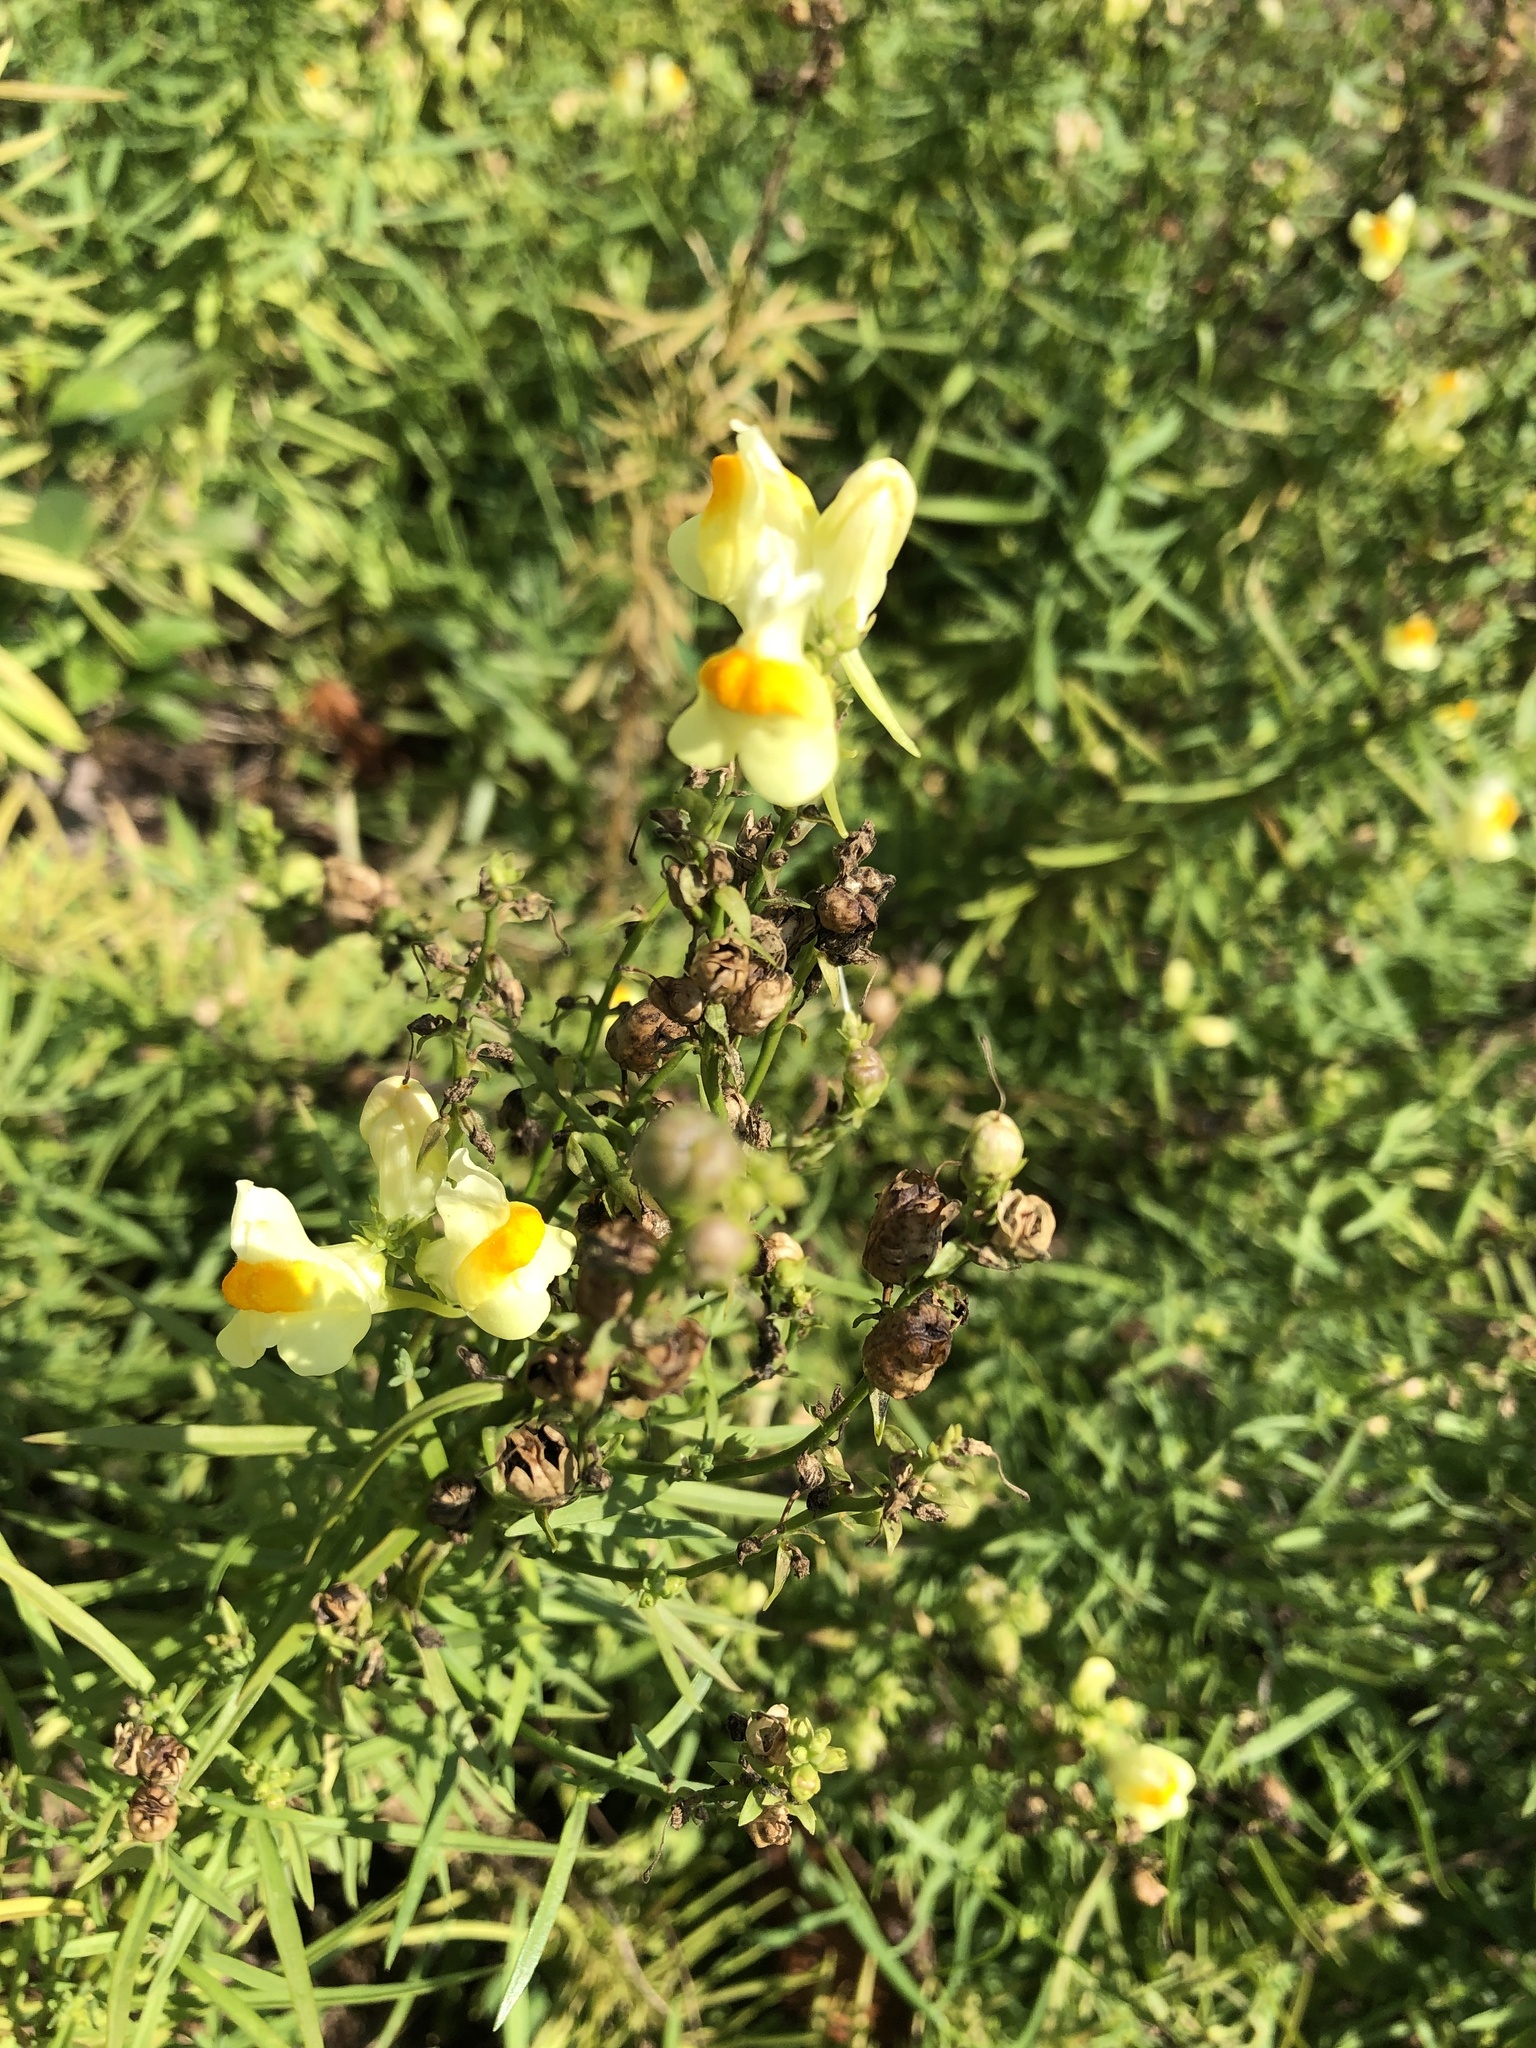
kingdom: Plantae
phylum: Tracheophyta
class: Magnoliopsida
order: Lamiales
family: Plantaginaceae
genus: Linaria
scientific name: Linaria vulgaris
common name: Butter and eggs
